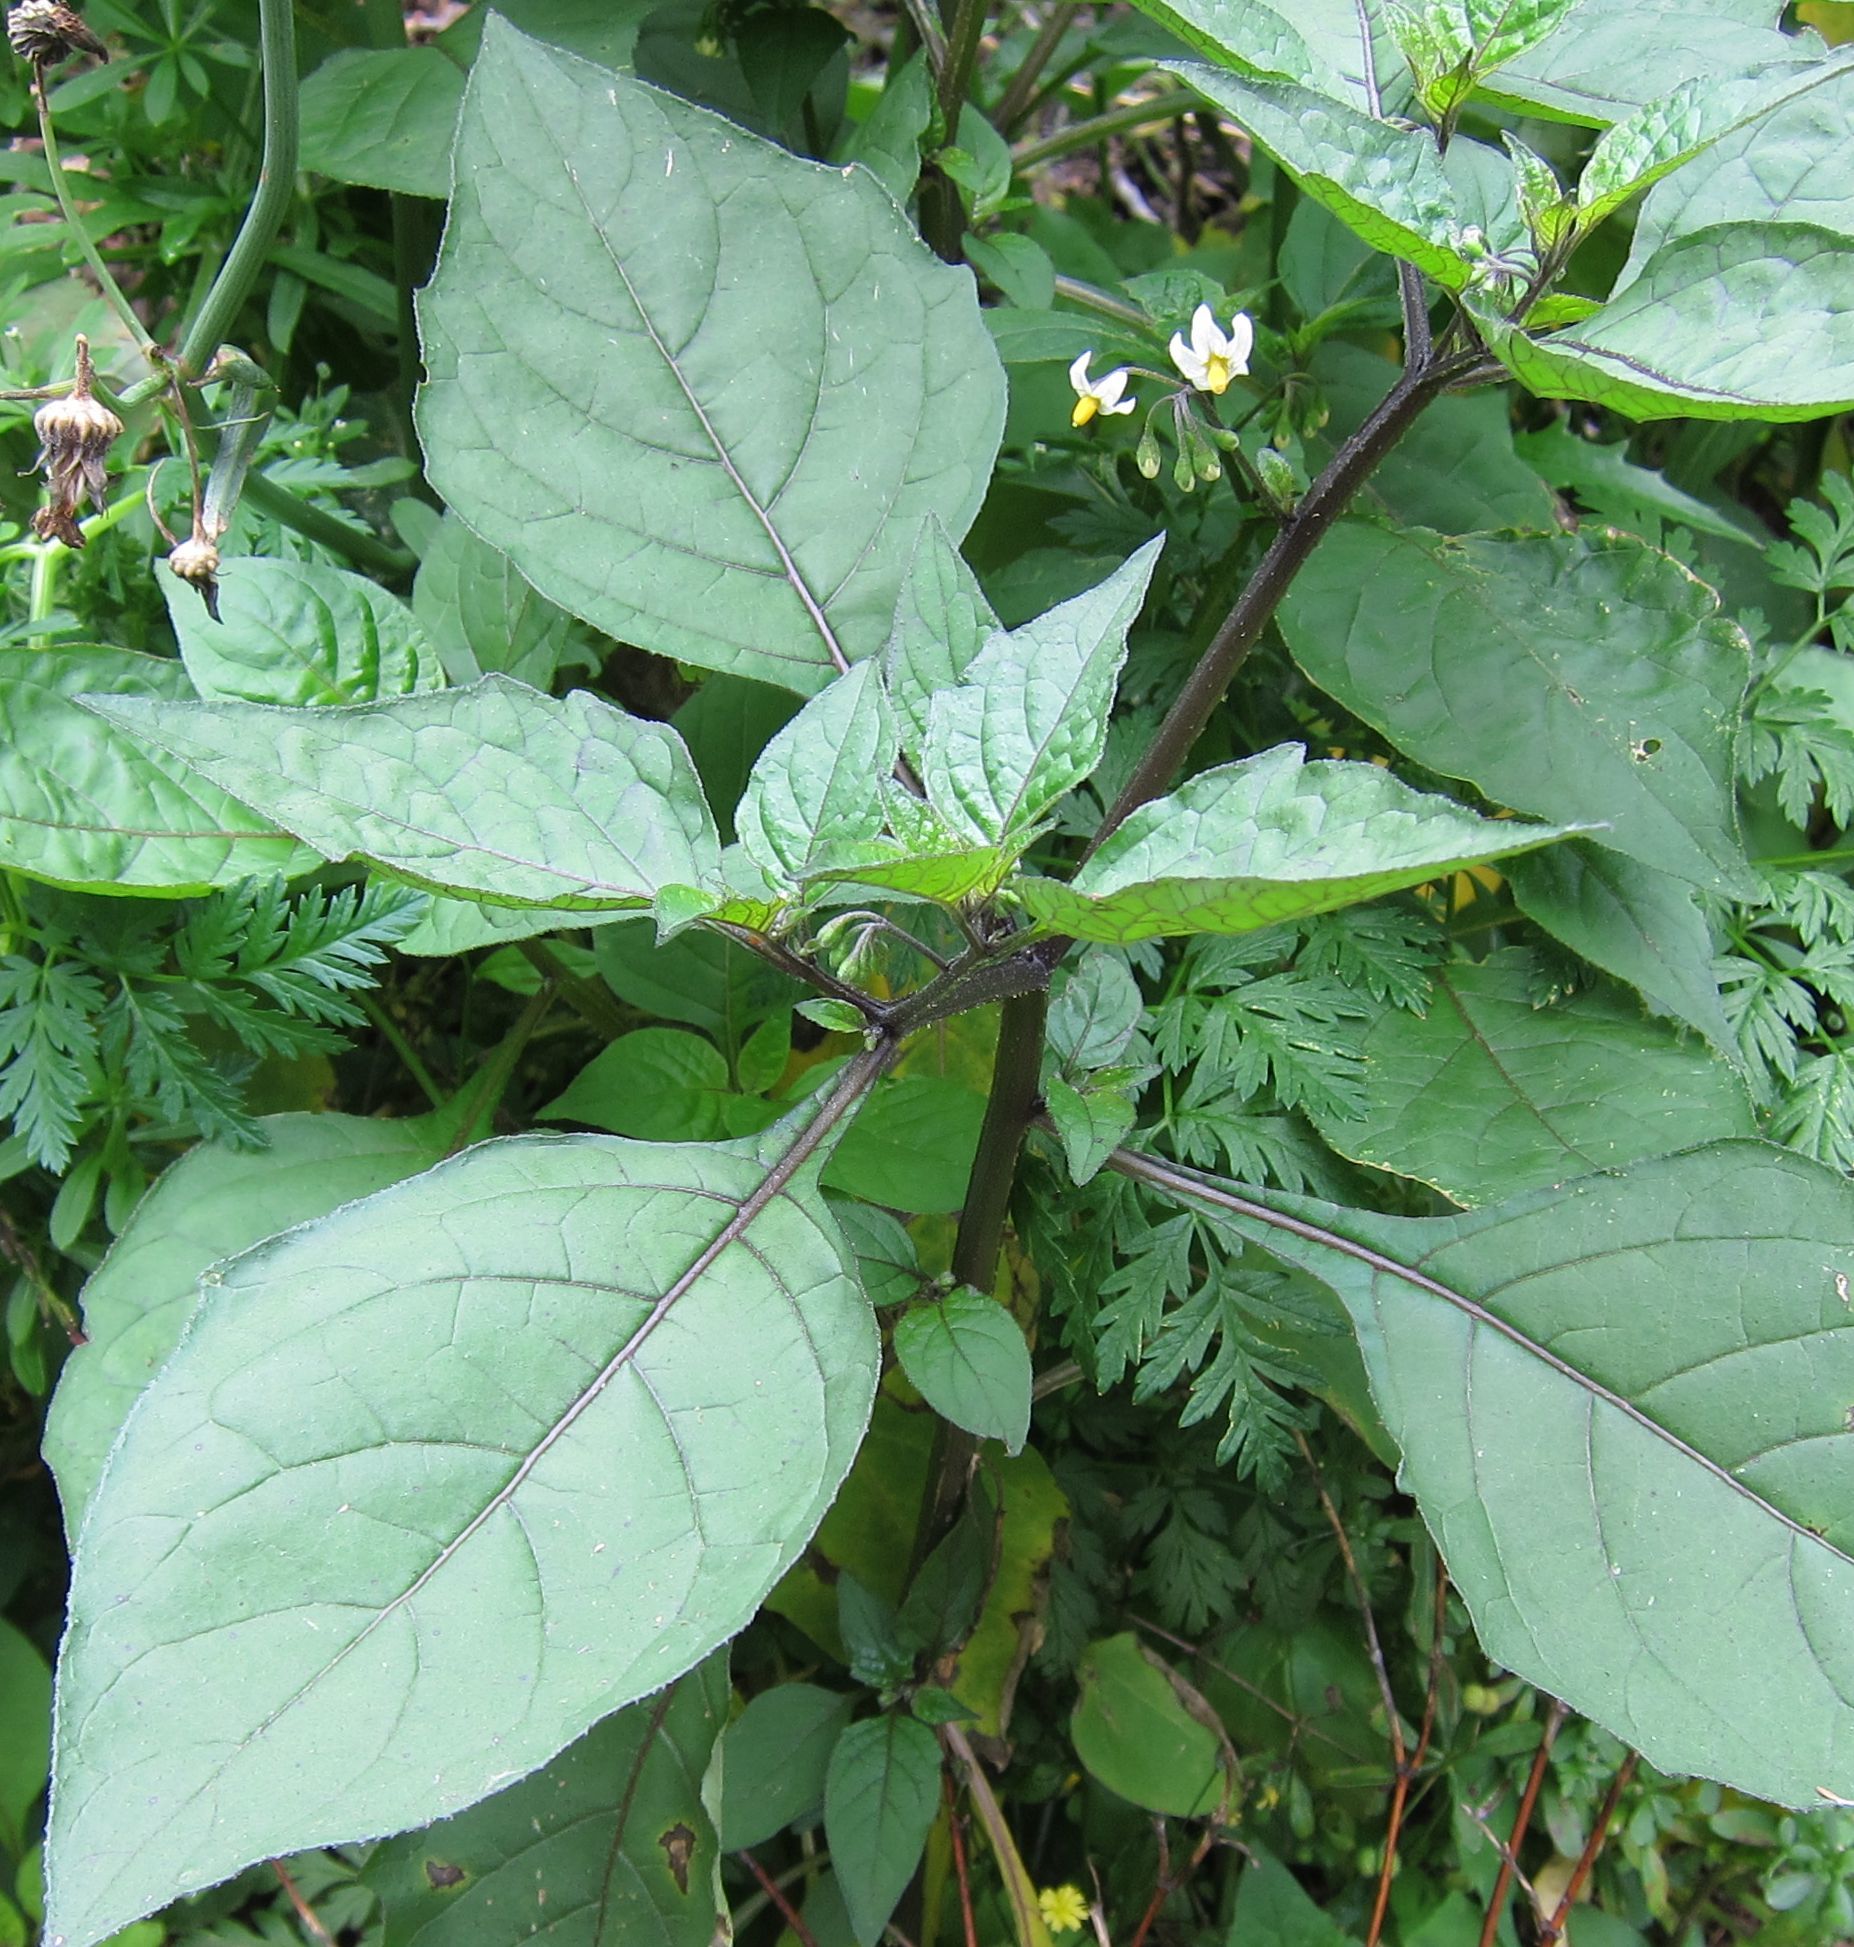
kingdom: Plantae
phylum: Tracheophyta
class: Magnoliopsida
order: Solanales
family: Solanaceae
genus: Solanum
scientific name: Solanum nigrum
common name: Black nightshade
